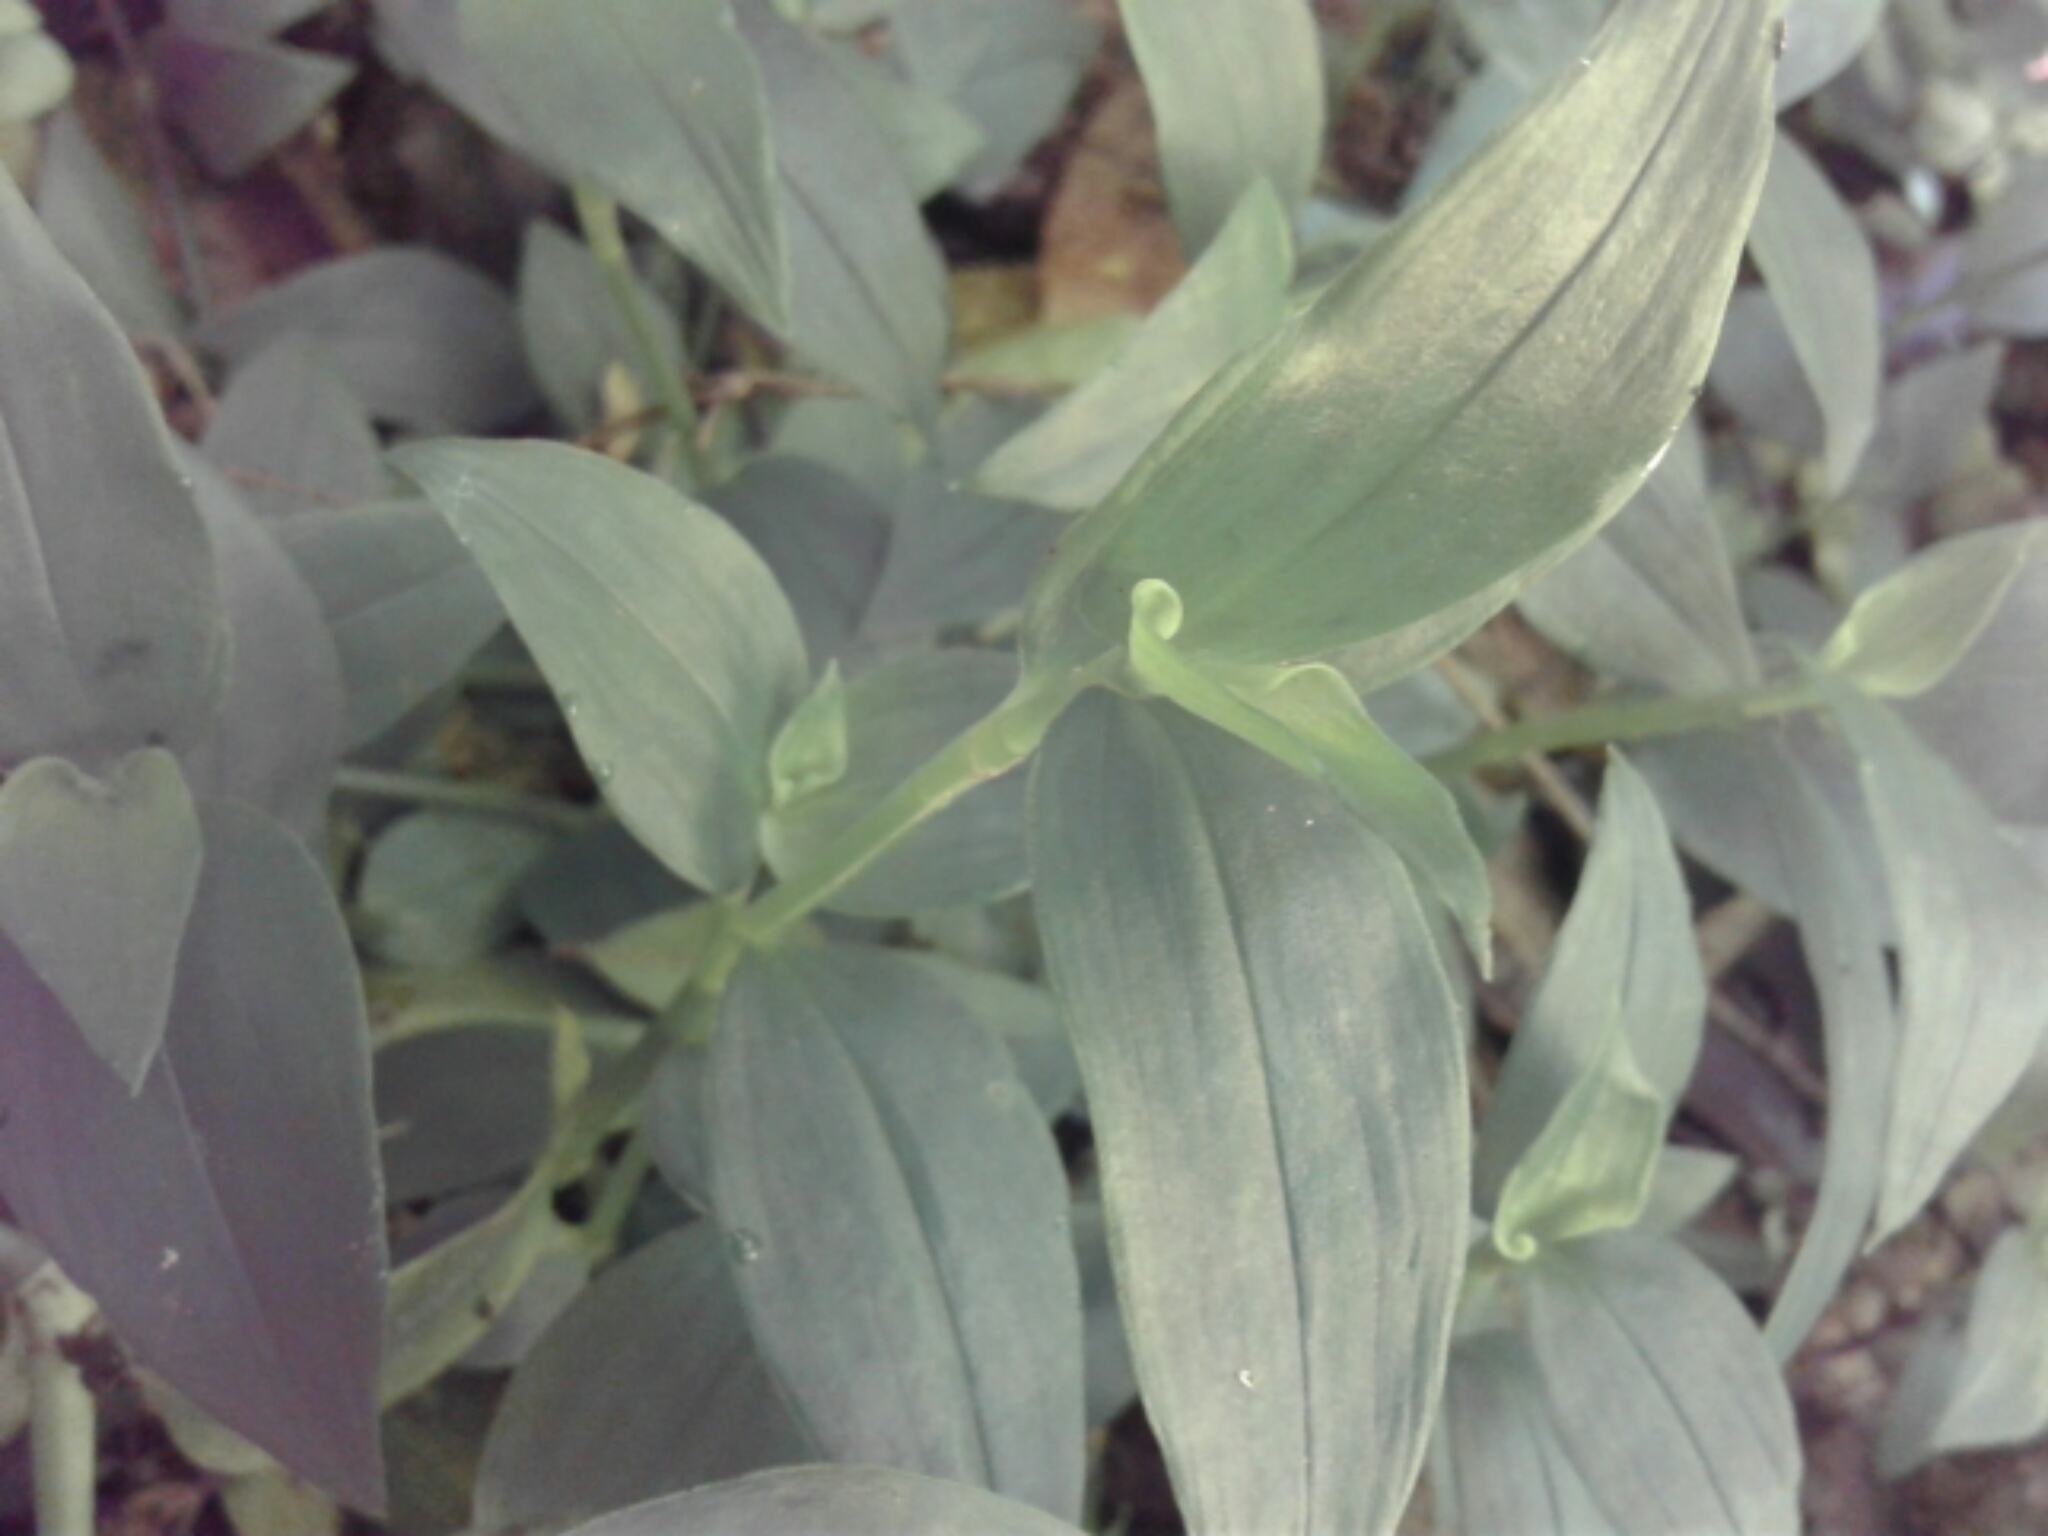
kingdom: Plantae
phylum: Tracheophyta
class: Liliopsida
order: Commelinales
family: Commelinaceae
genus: Tradescantia
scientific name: Tradescantia fluminensis
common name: Wandering-jew
